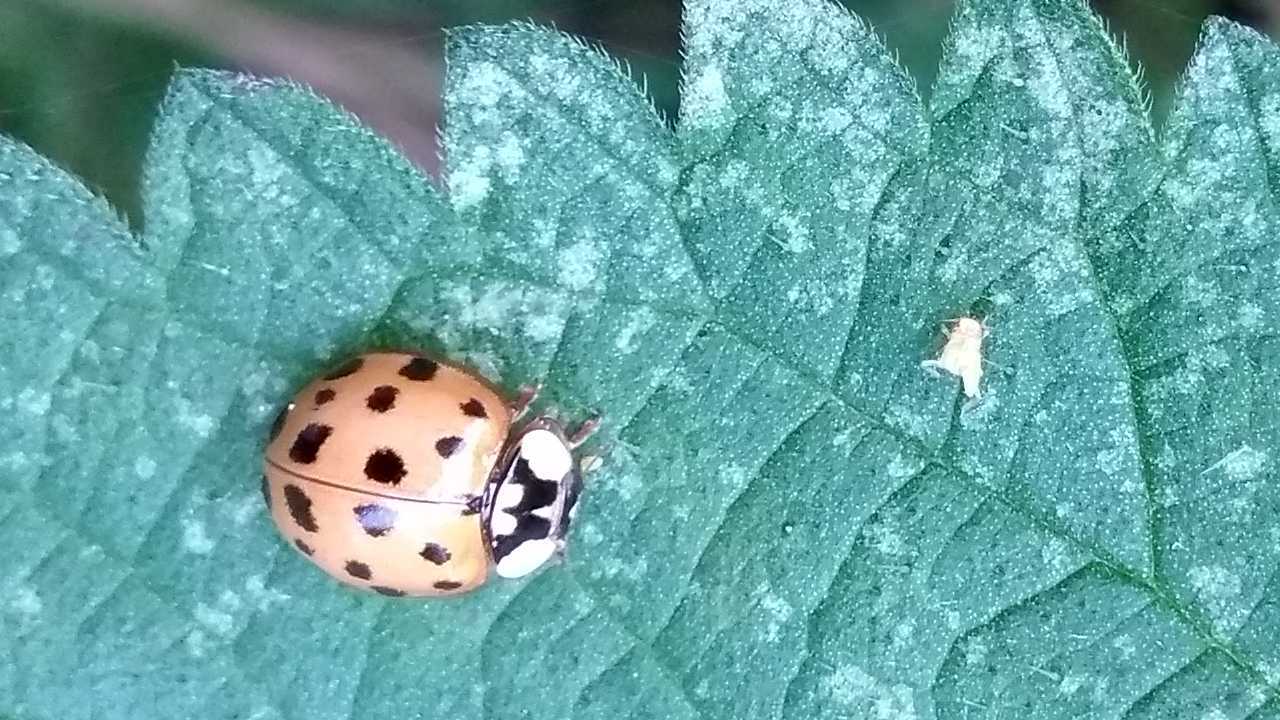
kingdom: Animalia
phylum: Arthropoda
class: Insecta
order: Coleoptera
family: Coccinellidae
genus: Harmonia
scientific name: Harmonia axyridis
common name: Harlequin ladybird
